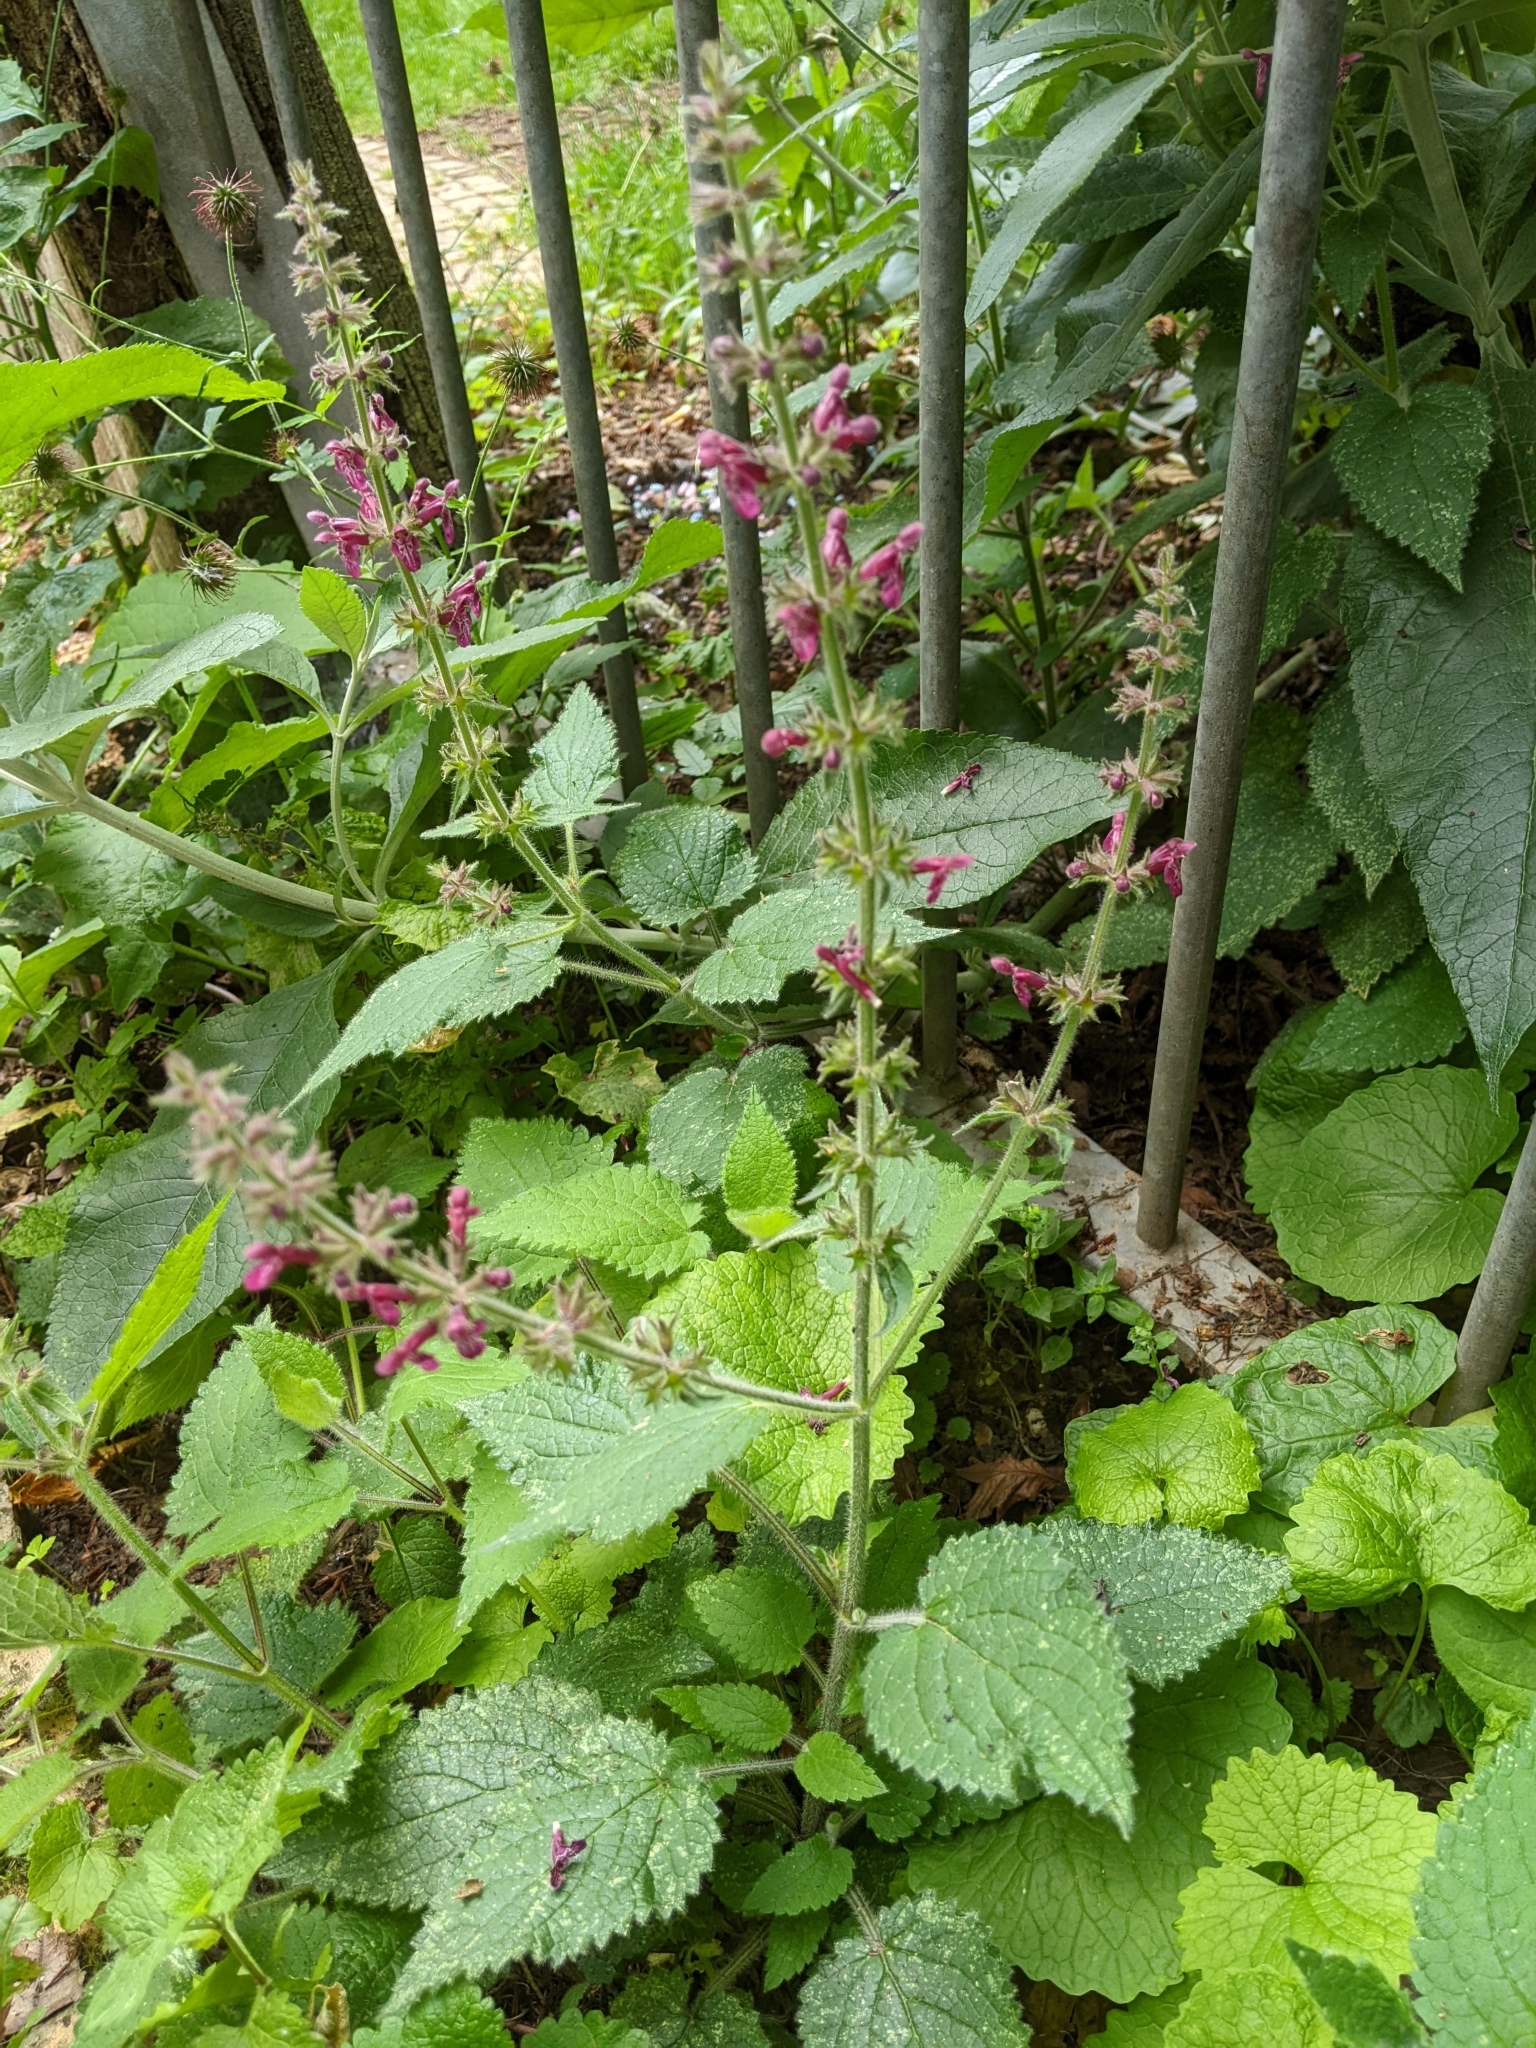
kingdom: Plantae
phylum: Tracheophyta
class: Magnoliopsida
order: Lamiales
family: Lamiaceae
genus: Stachys
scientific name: Stachys sylvatica
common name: Hedge woundwort
